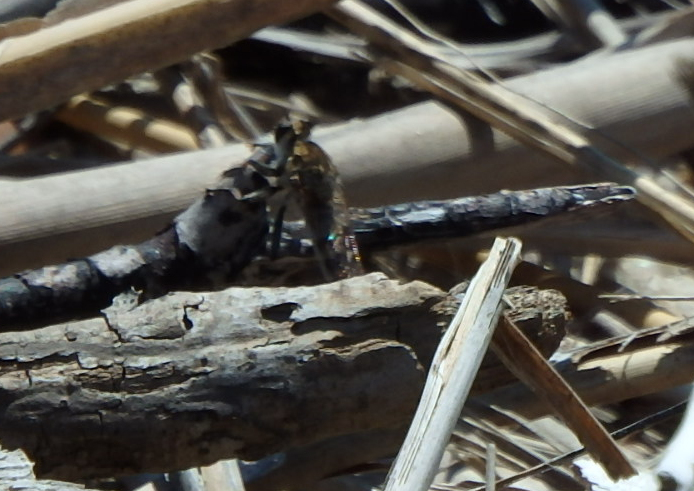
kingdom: Animalia
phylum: Arthropoda
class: Insecta
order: Diptera
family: Asilidae
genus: Efferia
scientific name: Efferia albibarbis
